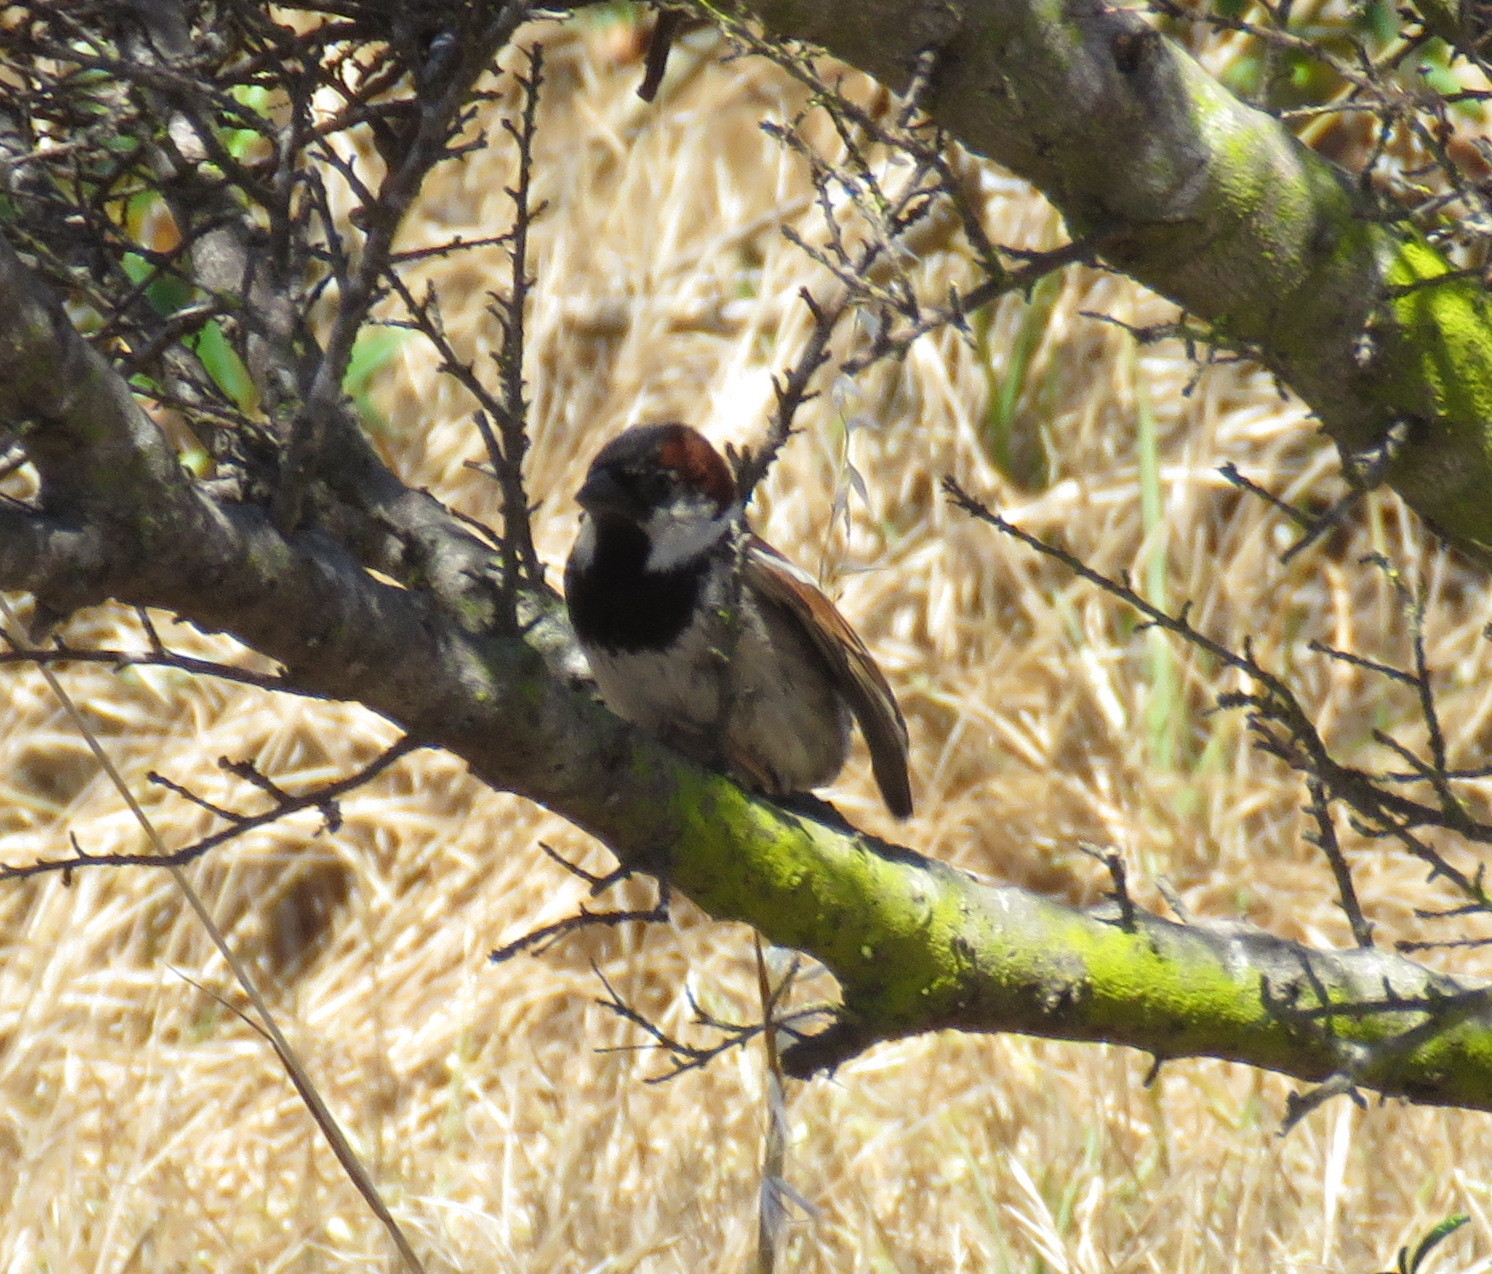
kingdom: Animalia
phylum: Chordata
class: Aves
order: Passeriformes
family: Passeridae
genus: Passer
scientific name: Passer domesticus
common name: House sparrow
